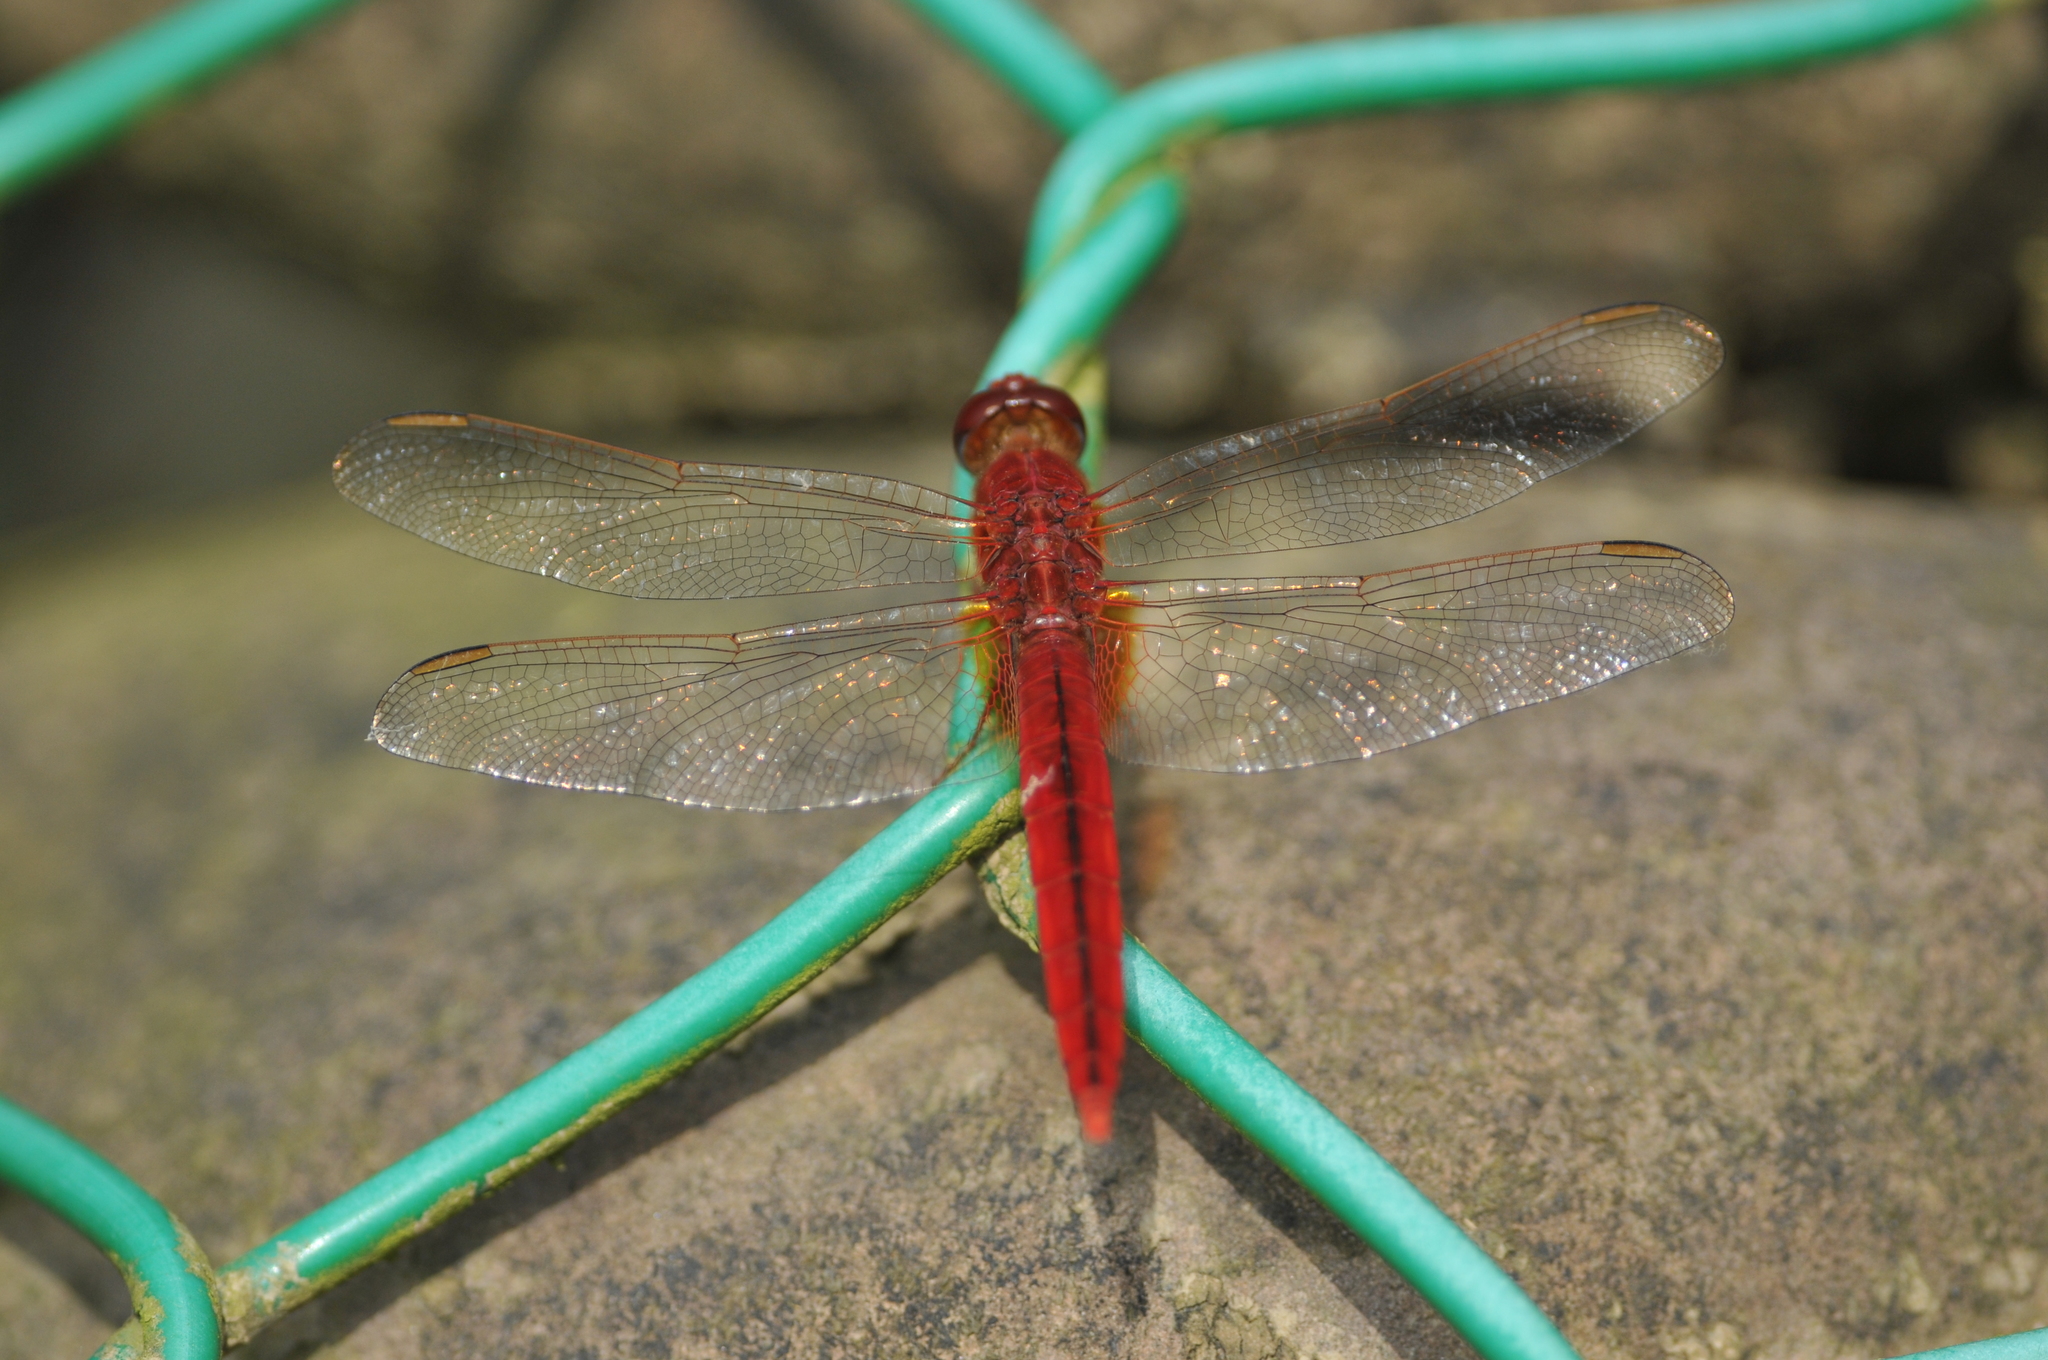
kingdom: Animalia
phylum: Arthropoda
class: Insecta
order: Odonata
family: Libellulidae
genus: Crocothemis
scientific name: Crocothemis servilia
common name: Scarlet skimmer
